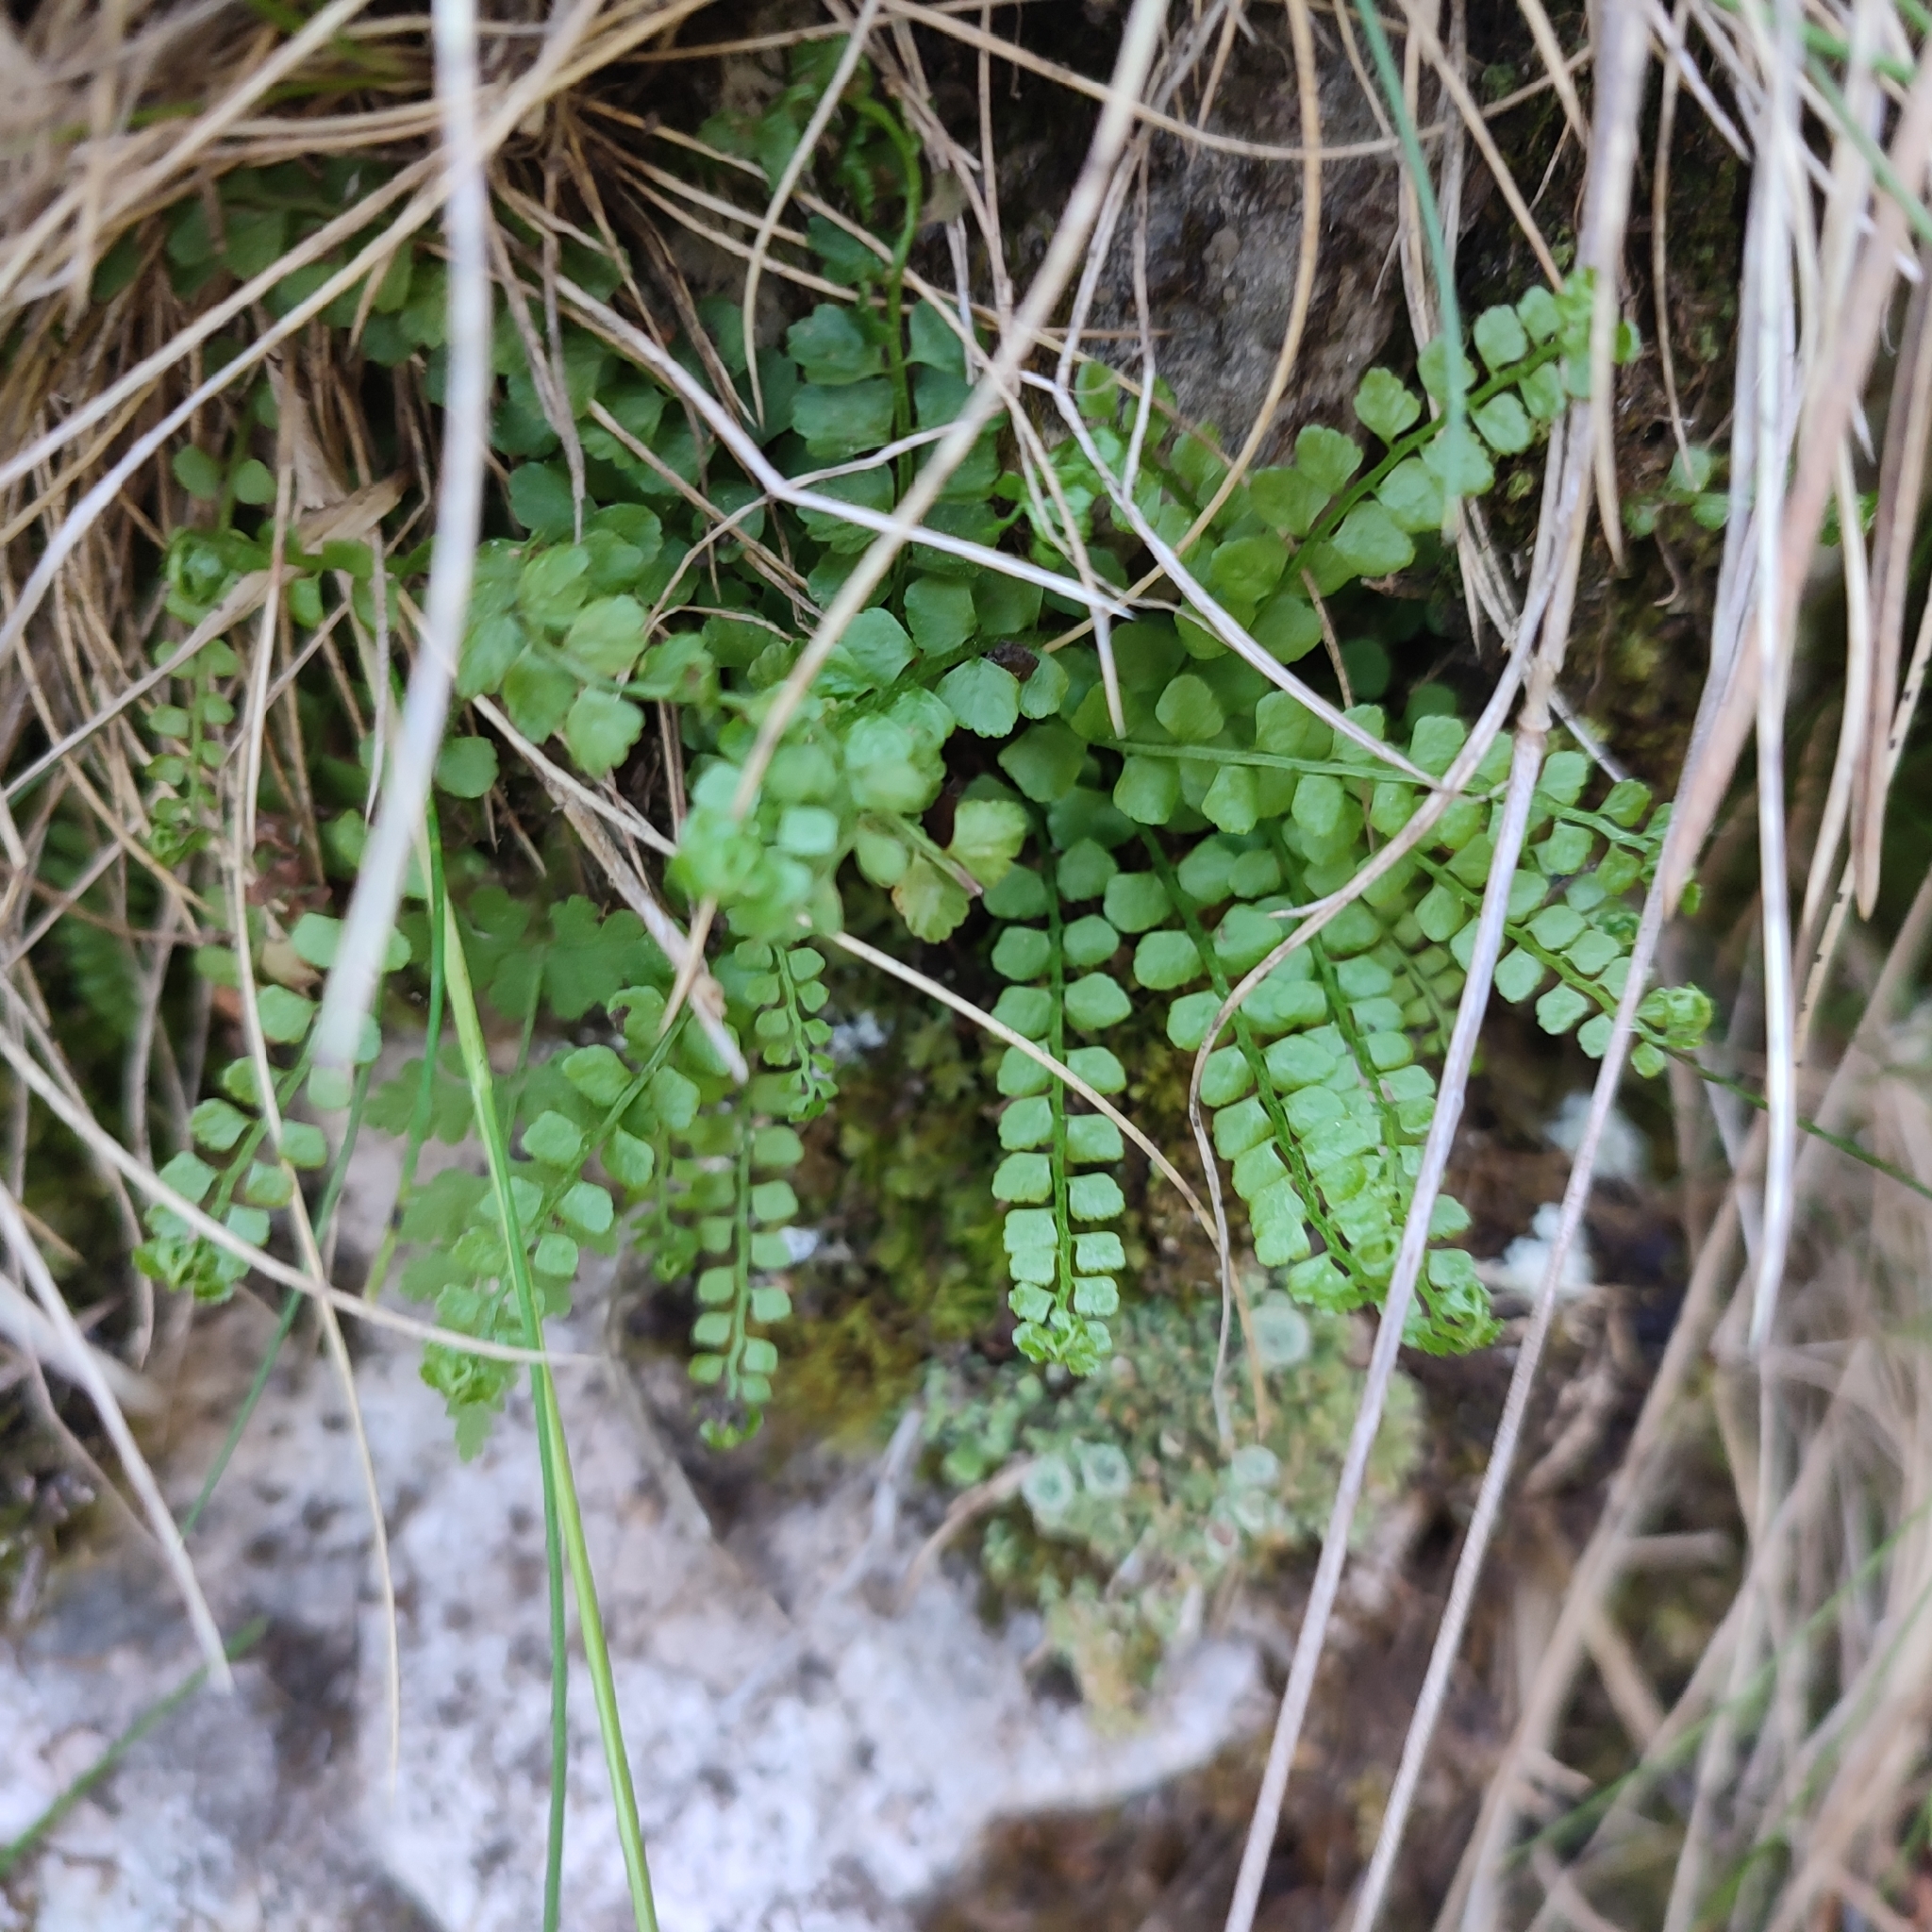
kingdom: Plantae
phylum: Tracheophyta
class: Polypodiopsida
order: Polypodiales
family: Aspleniaceae
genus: Asplenium
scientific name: Asplenium viride
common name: Green spleenwort
